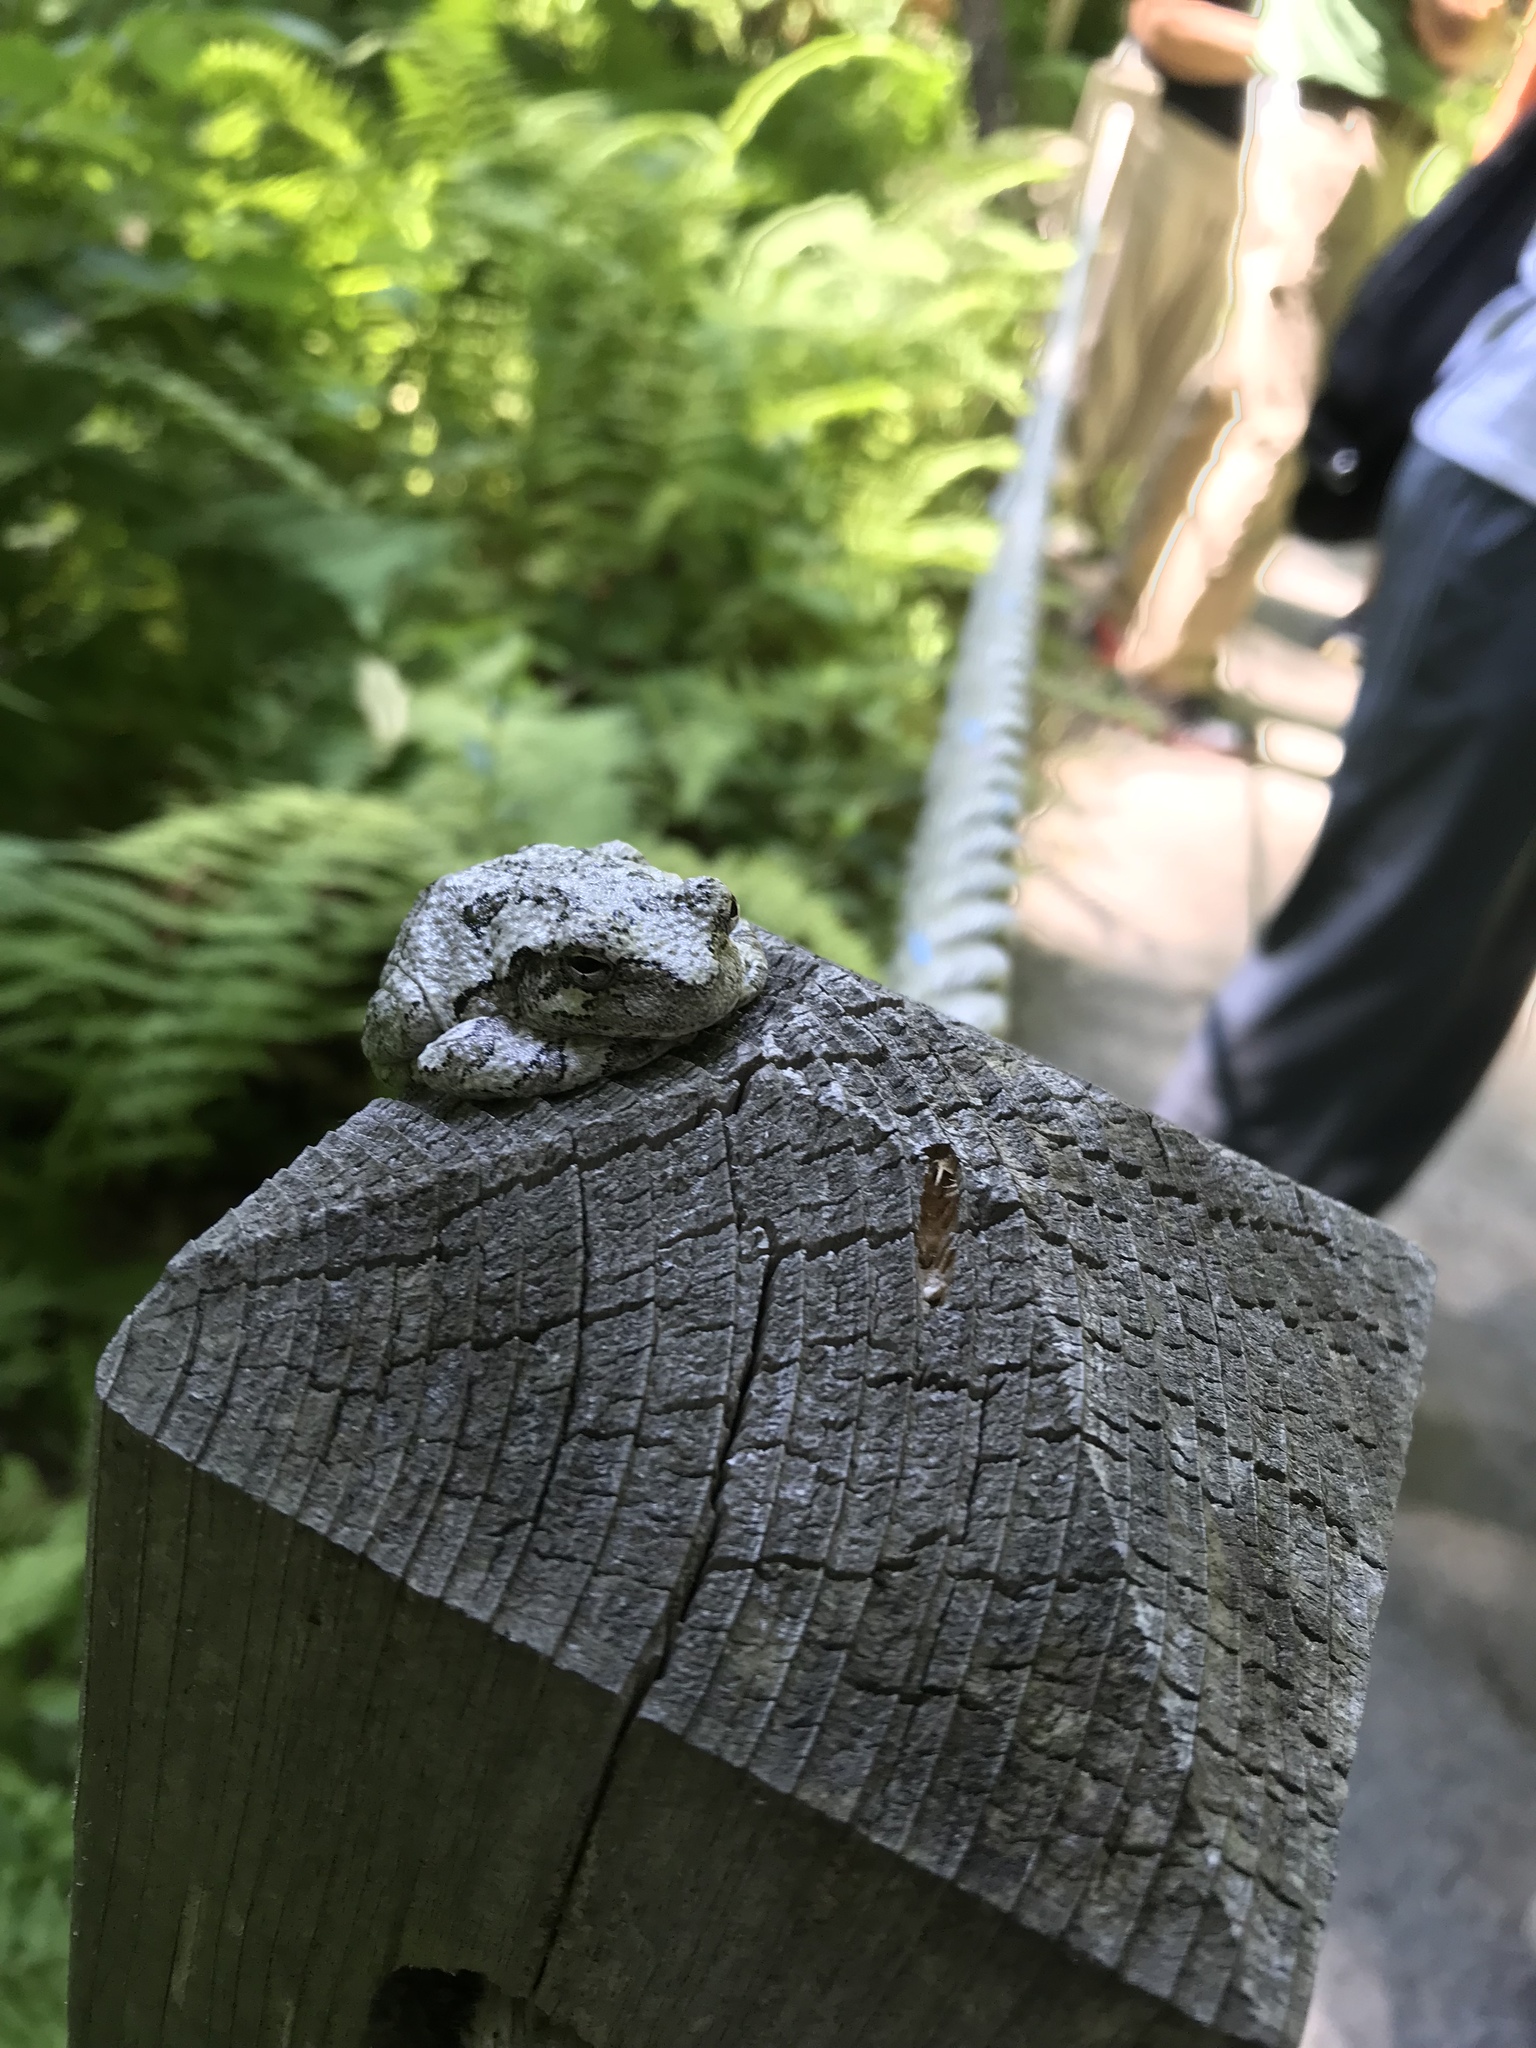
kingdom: Animalia
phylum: Chordata
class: Amphibia
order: Anura
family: Hylidae
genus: Dryophytes
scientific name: Dryophytes versicolor
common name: Gray treefrog
